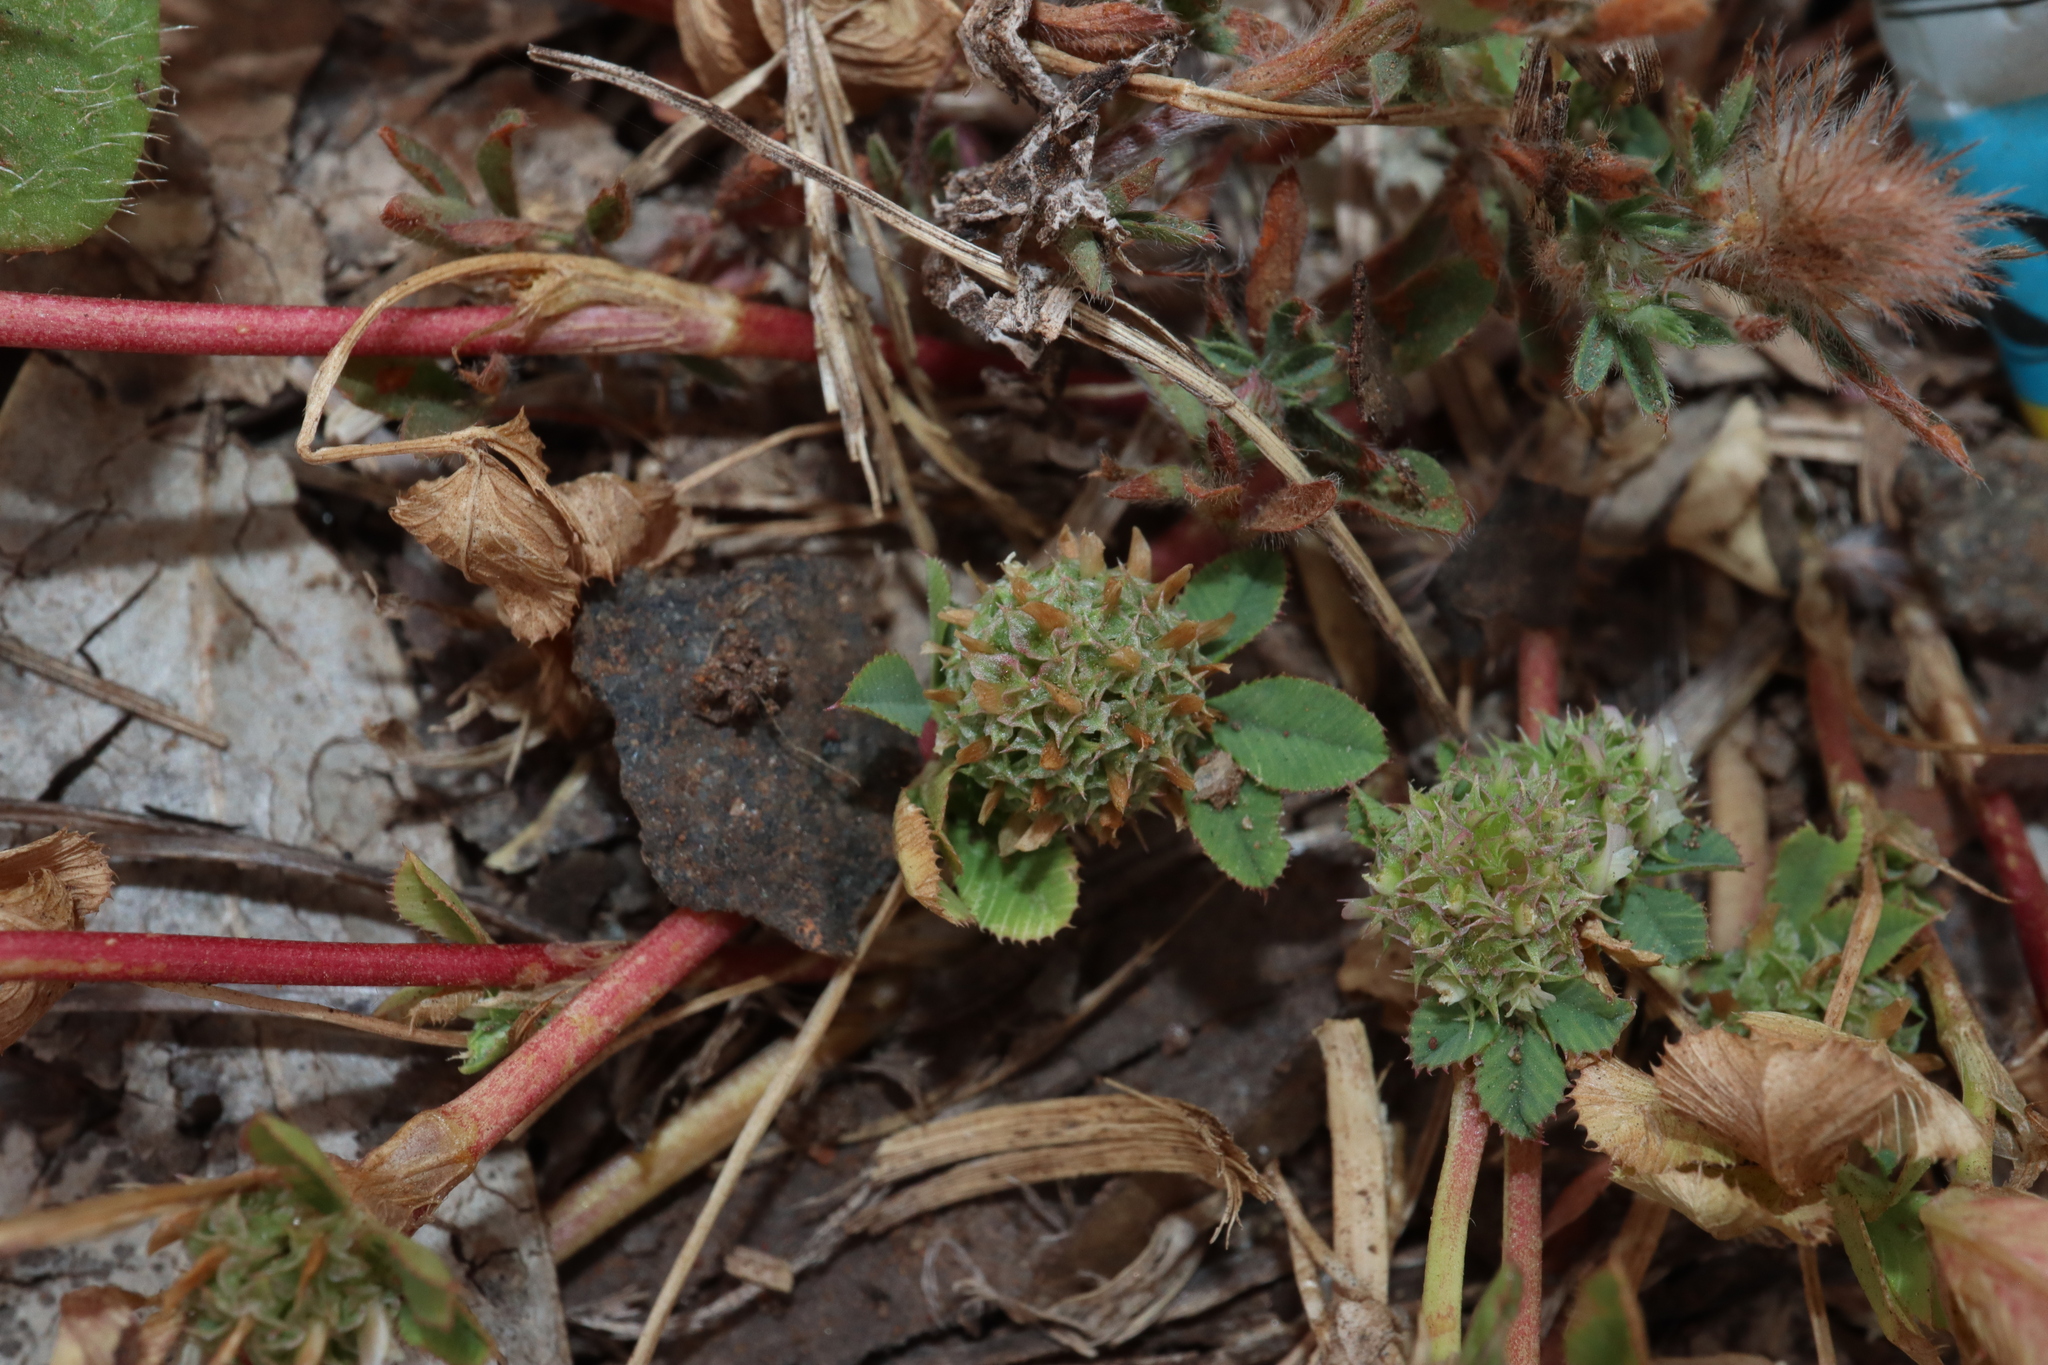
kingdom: Plantae
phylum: Tracheophyta
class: Magnoliopsida
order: Fabales
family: Fabaceae
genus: Trifolium
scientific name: Trifolium glomeratum
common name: Clustered clover
